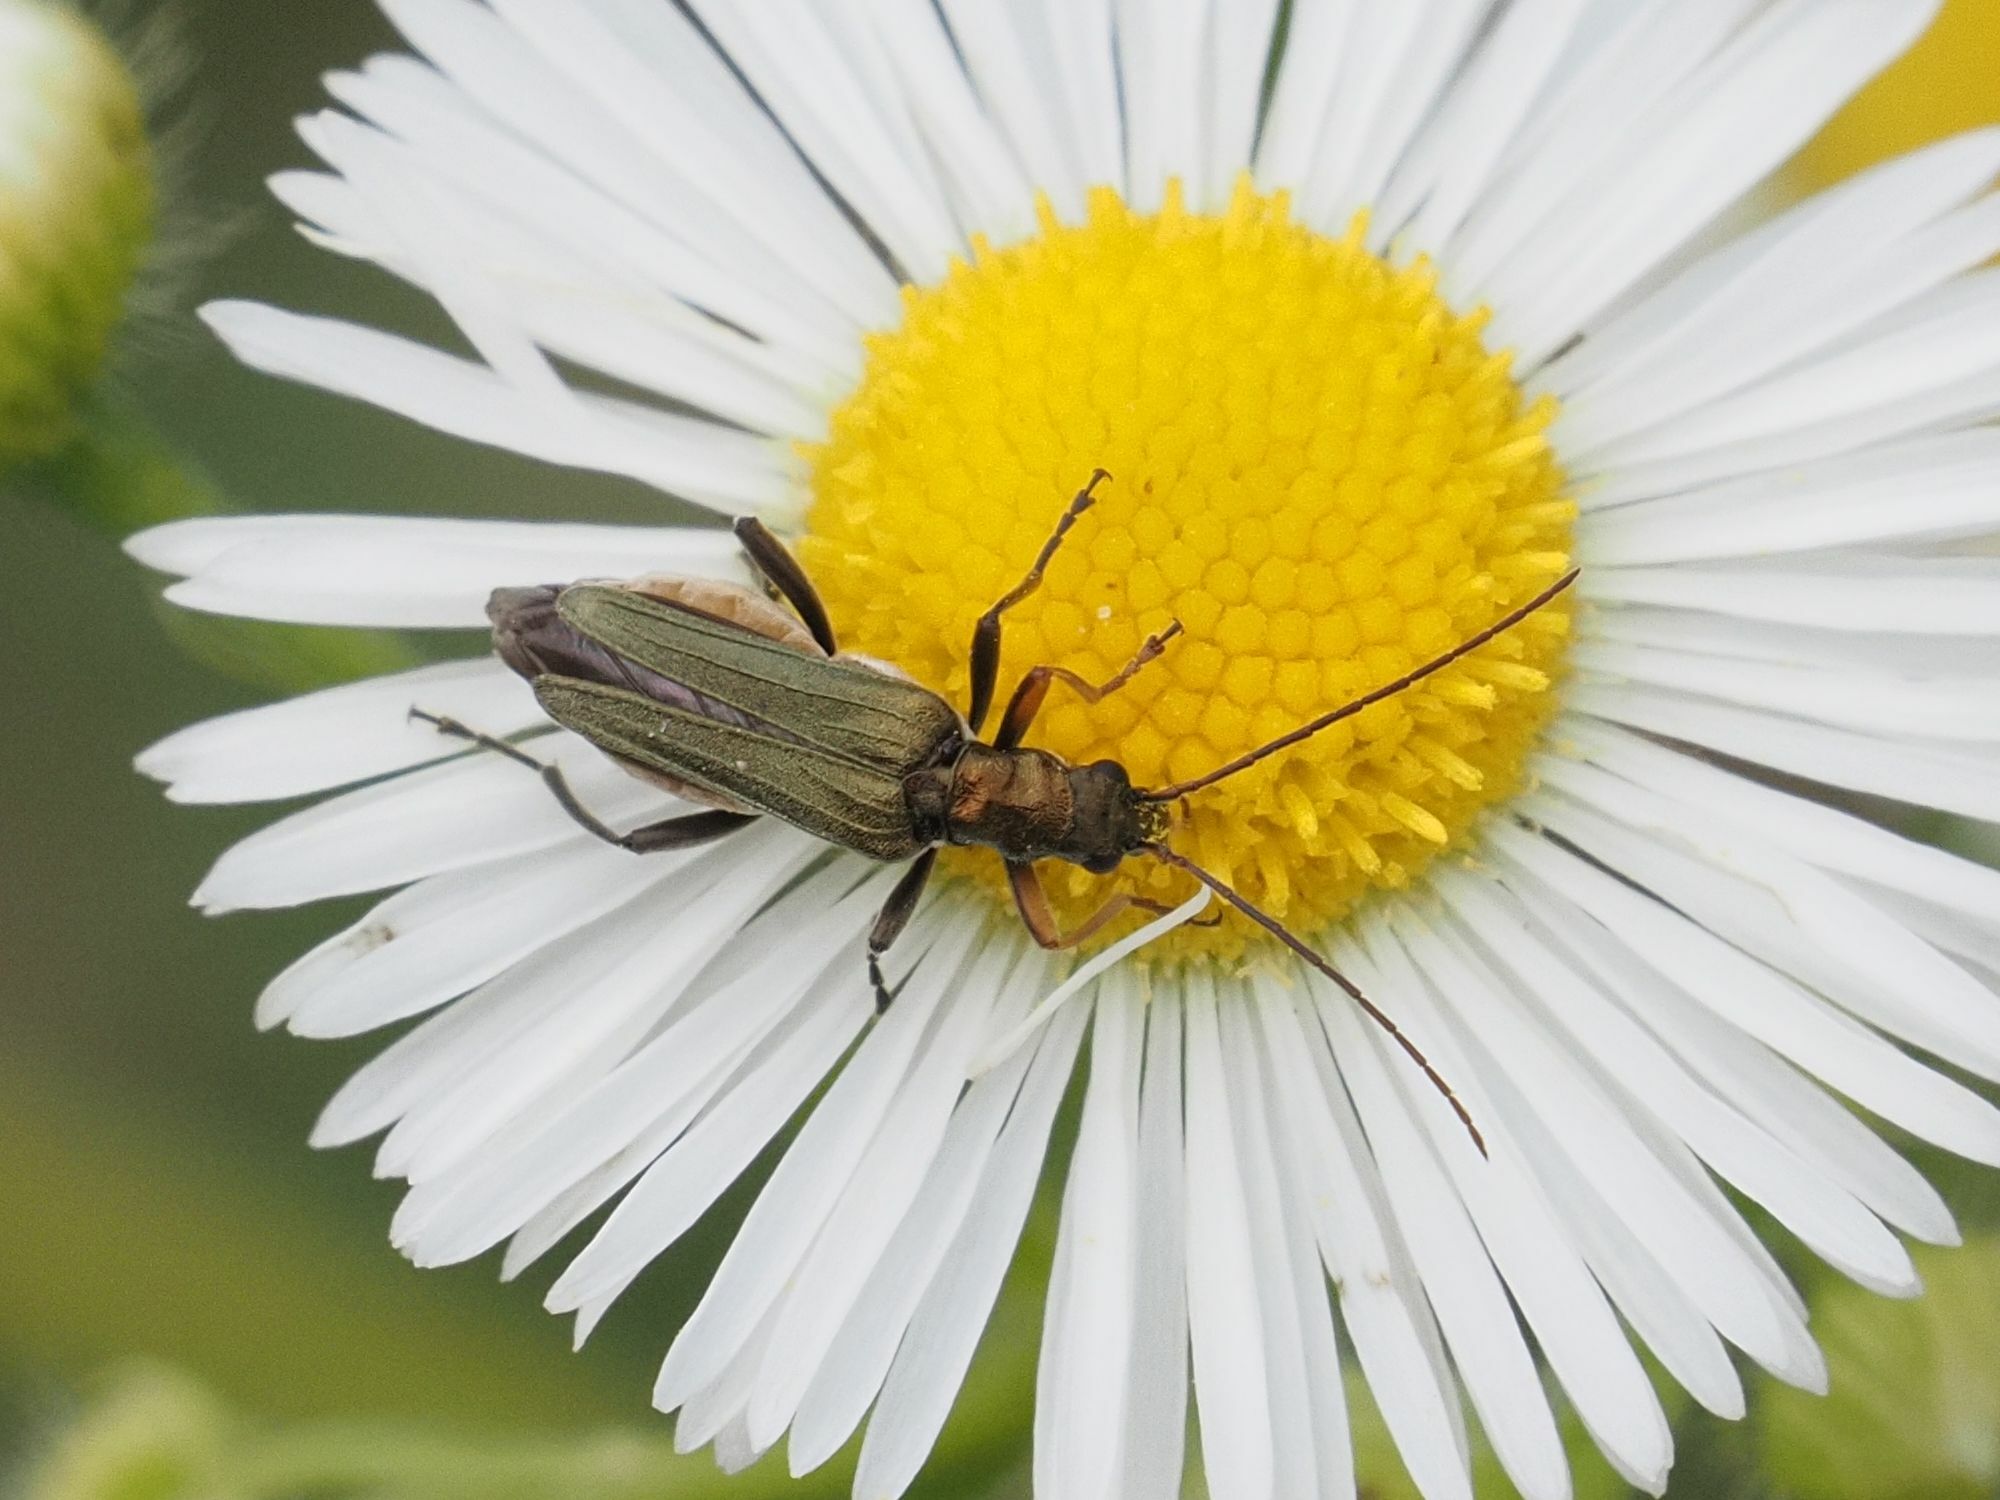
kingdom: Animalia
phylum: Arthropoda
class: Insecta
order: Coleoptera
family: Oedemeridae
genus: Oedemera
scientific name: Oedemera flavipes
